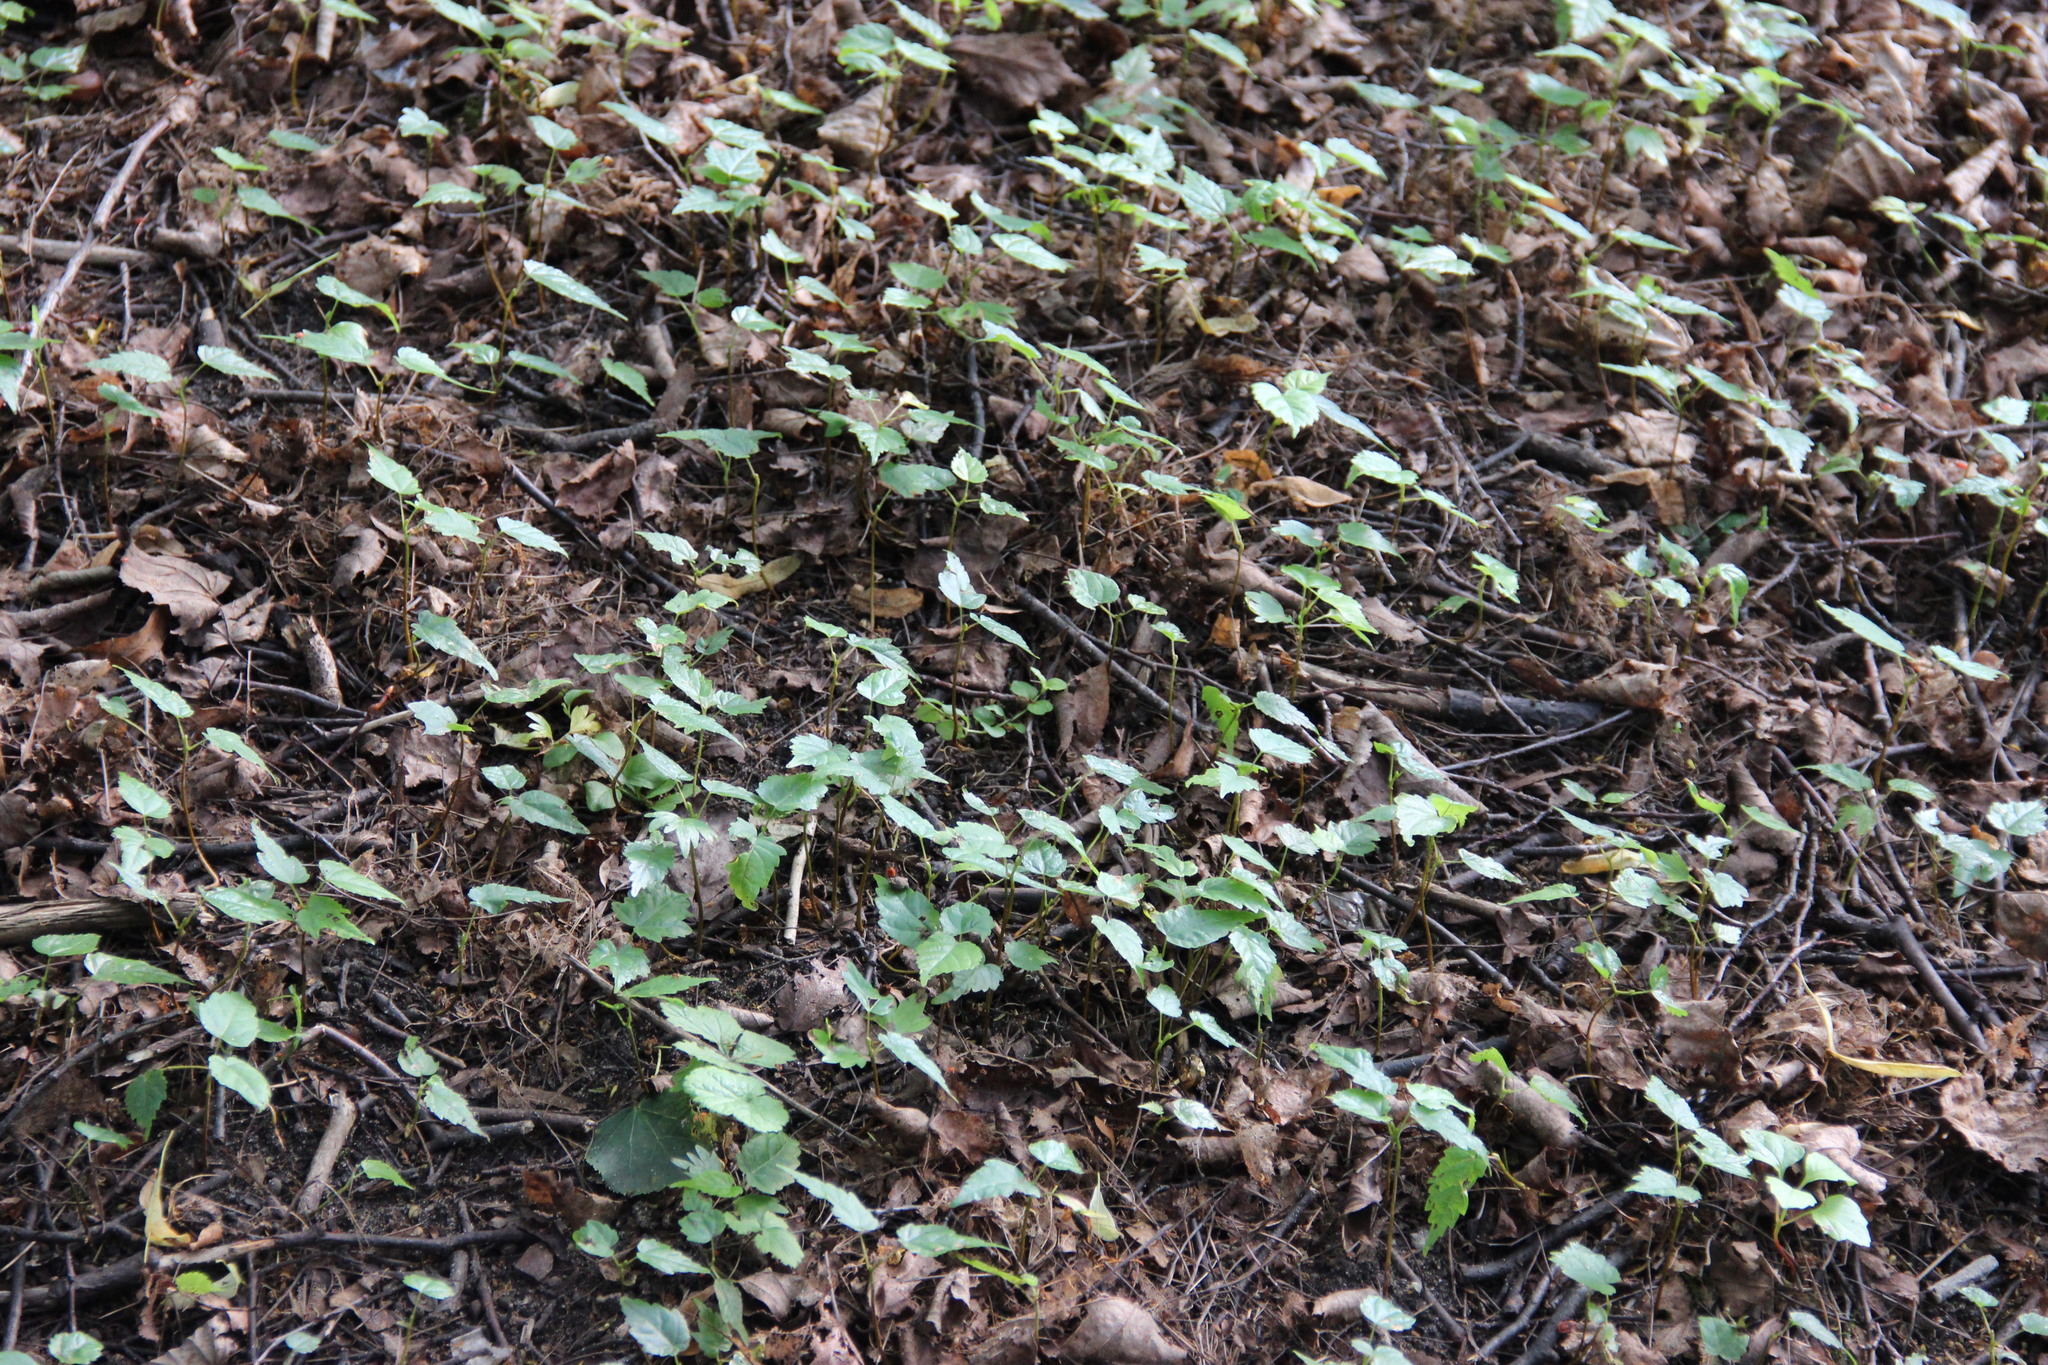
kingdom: Plantae
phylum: Tracheophyta
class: Magnoliopsida
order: Malvales
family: Malvaceae
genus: Tilia
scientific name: Tilia cordata
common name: Small-leaved lime
